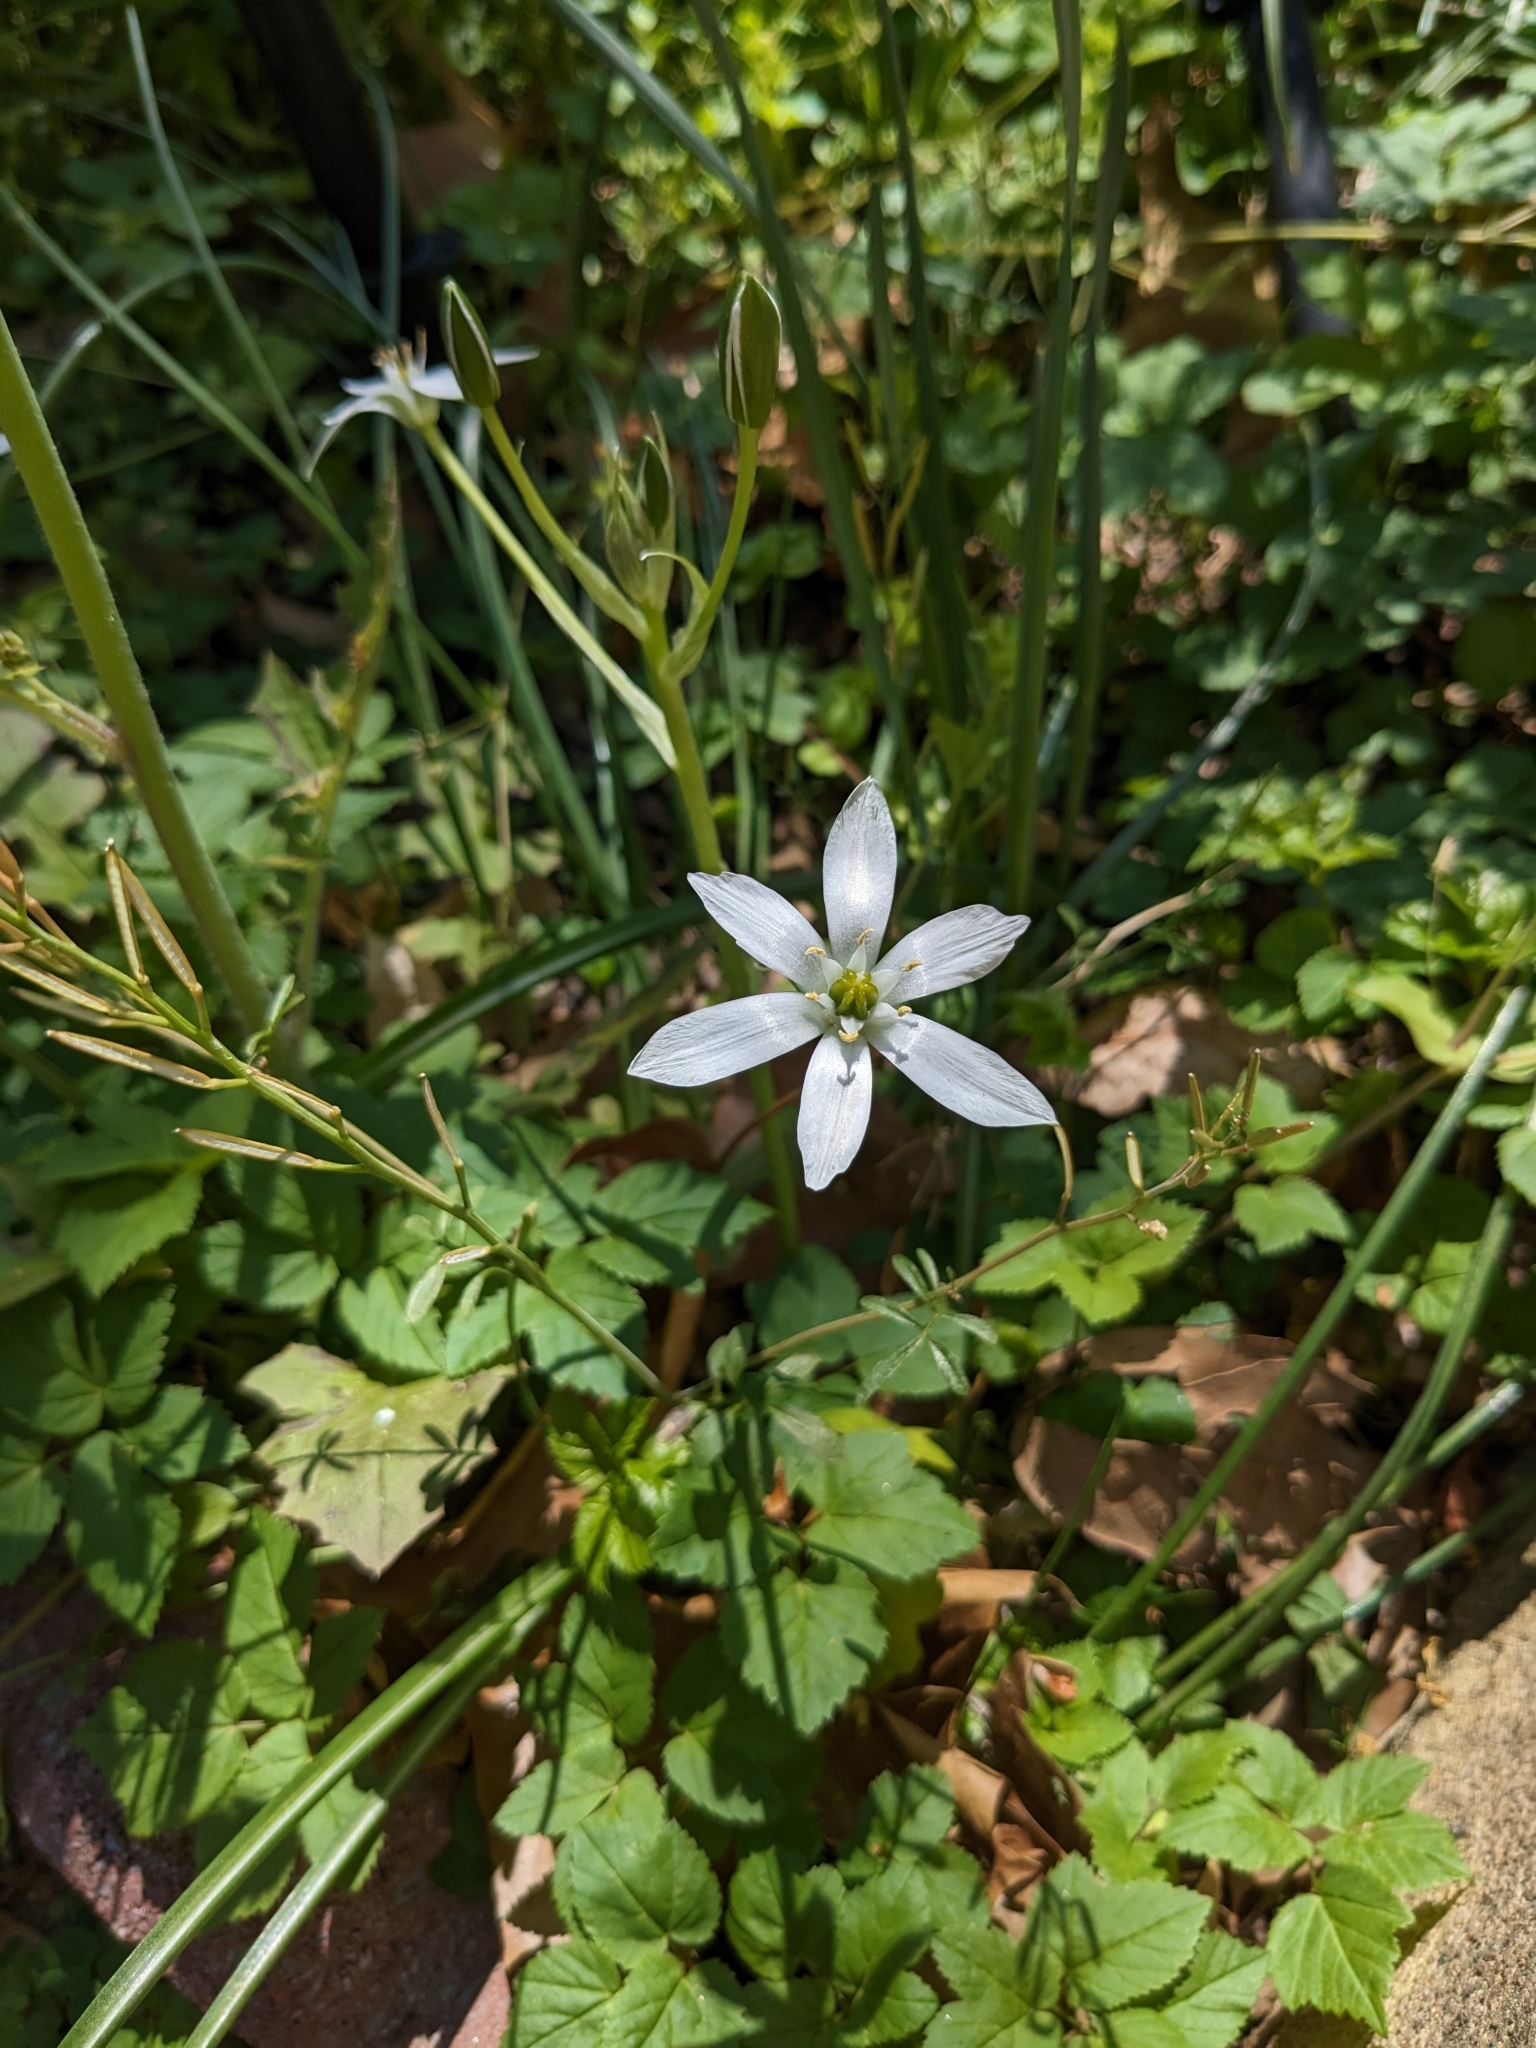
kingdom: Plantae
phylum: Tracheophyta
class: Liliopsida
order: Asparagales
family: Asparagaceae
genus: Ornithogalum
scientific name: Ornithogalum umbellatum
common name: Garden star-of-bethlehem
